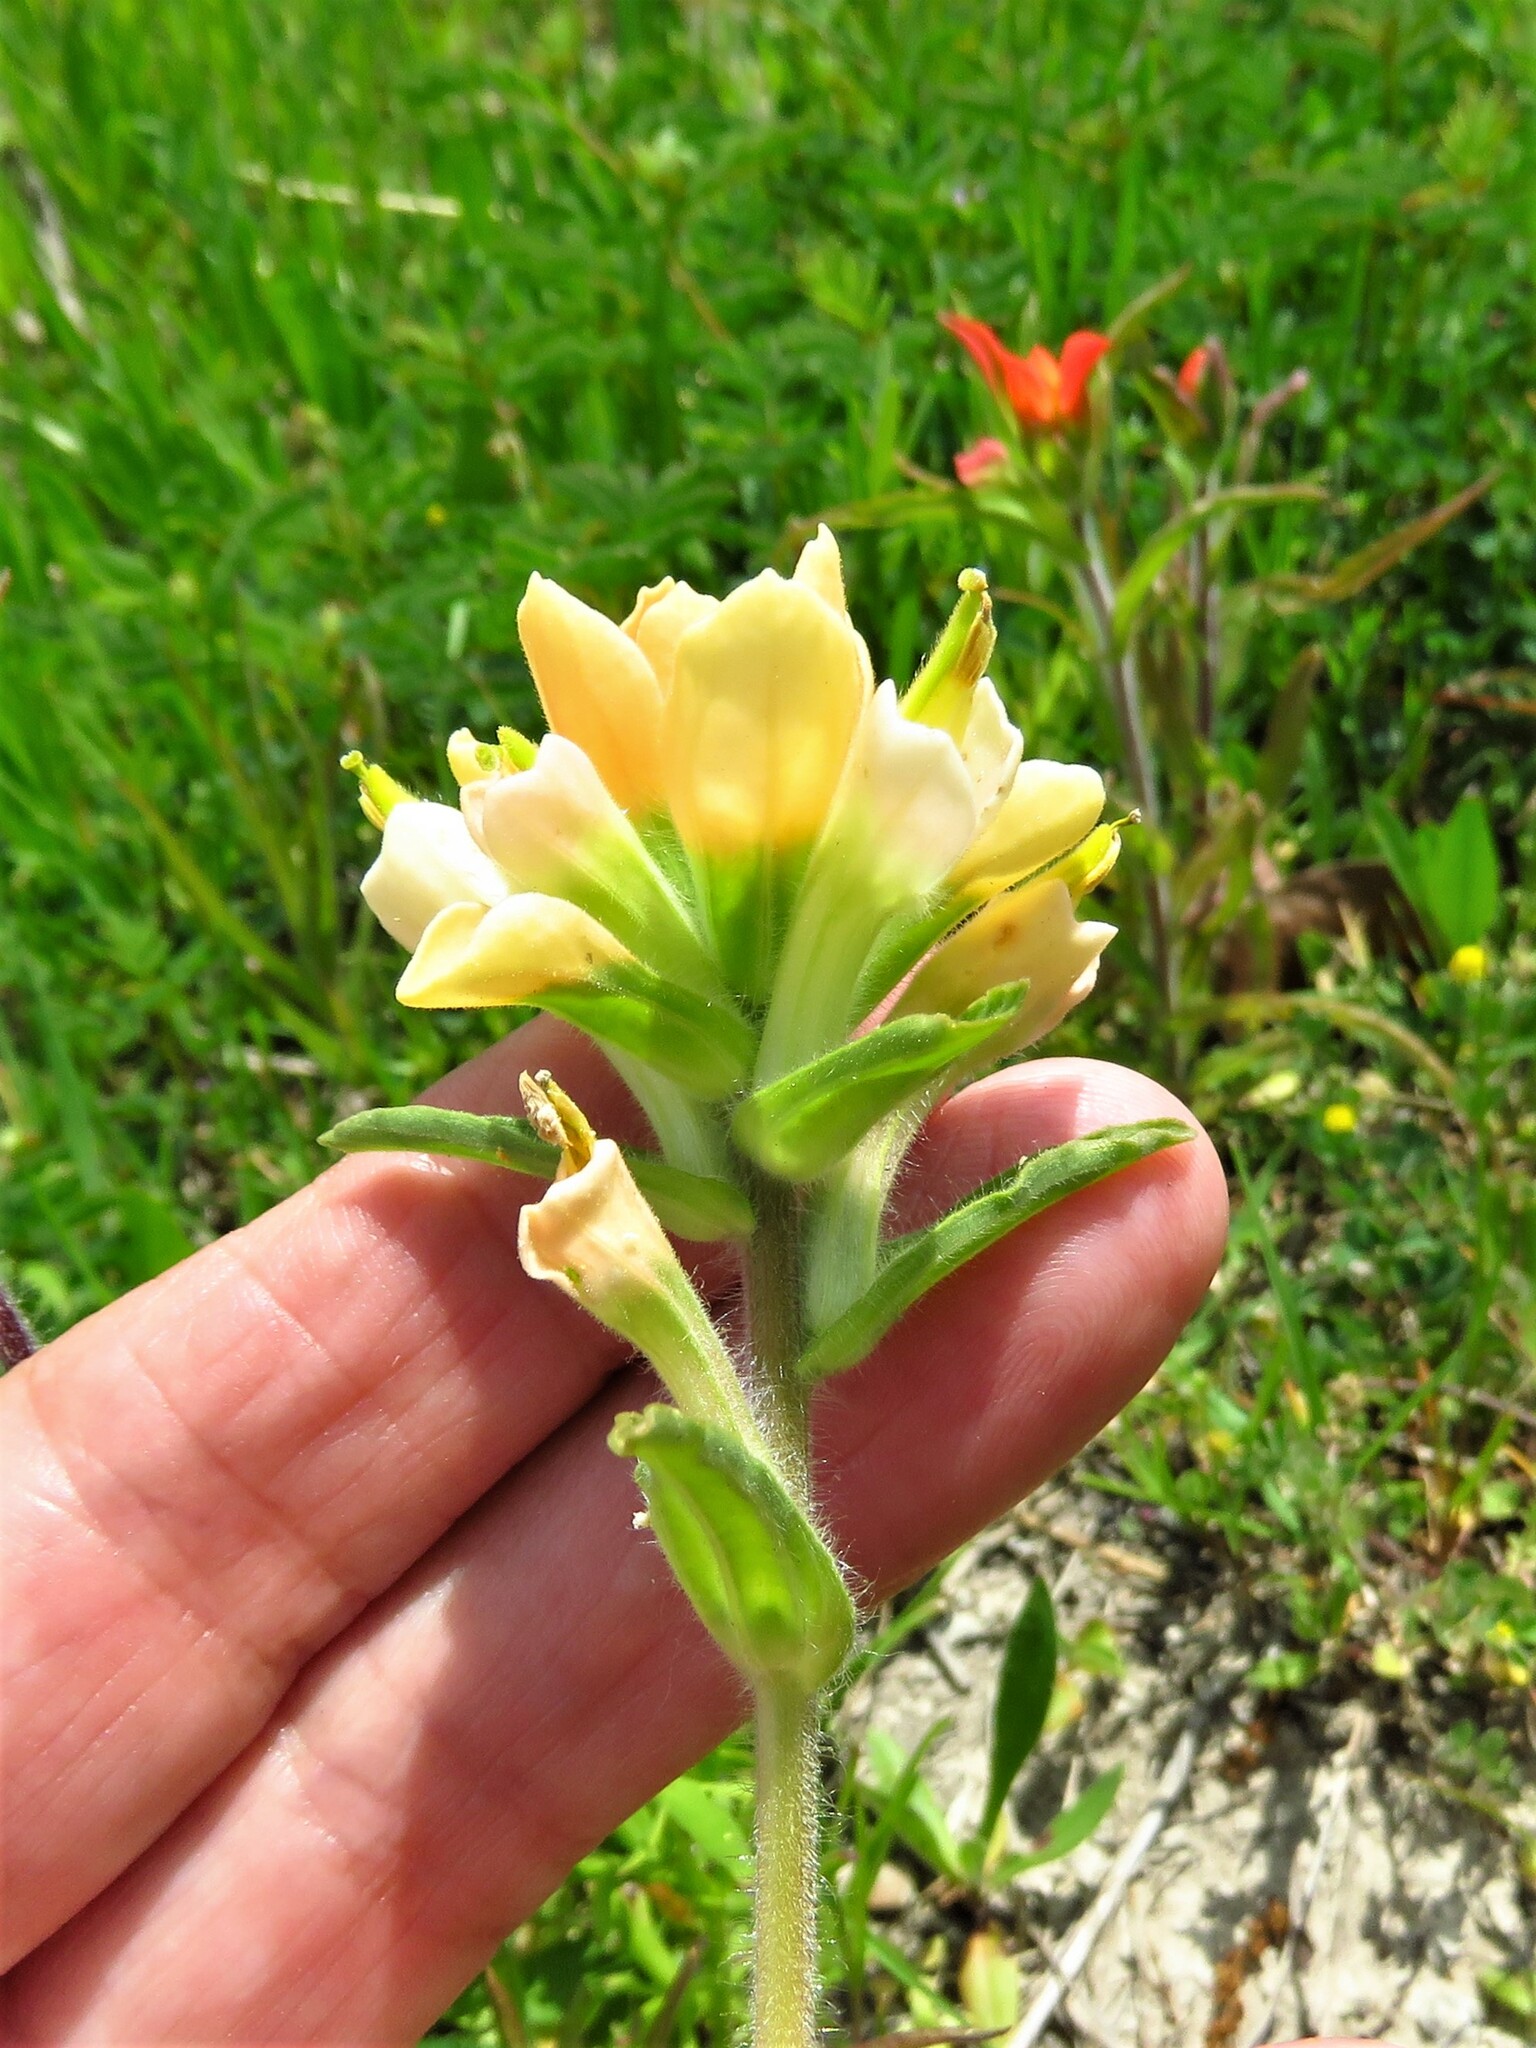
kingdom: Plantae
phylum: Tracheophyta
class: Magnoliopsida
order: Lamiales
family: Orobanchaceae
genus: Castilleja
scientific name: Castilleja indivisa
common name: Texas paintbrush
